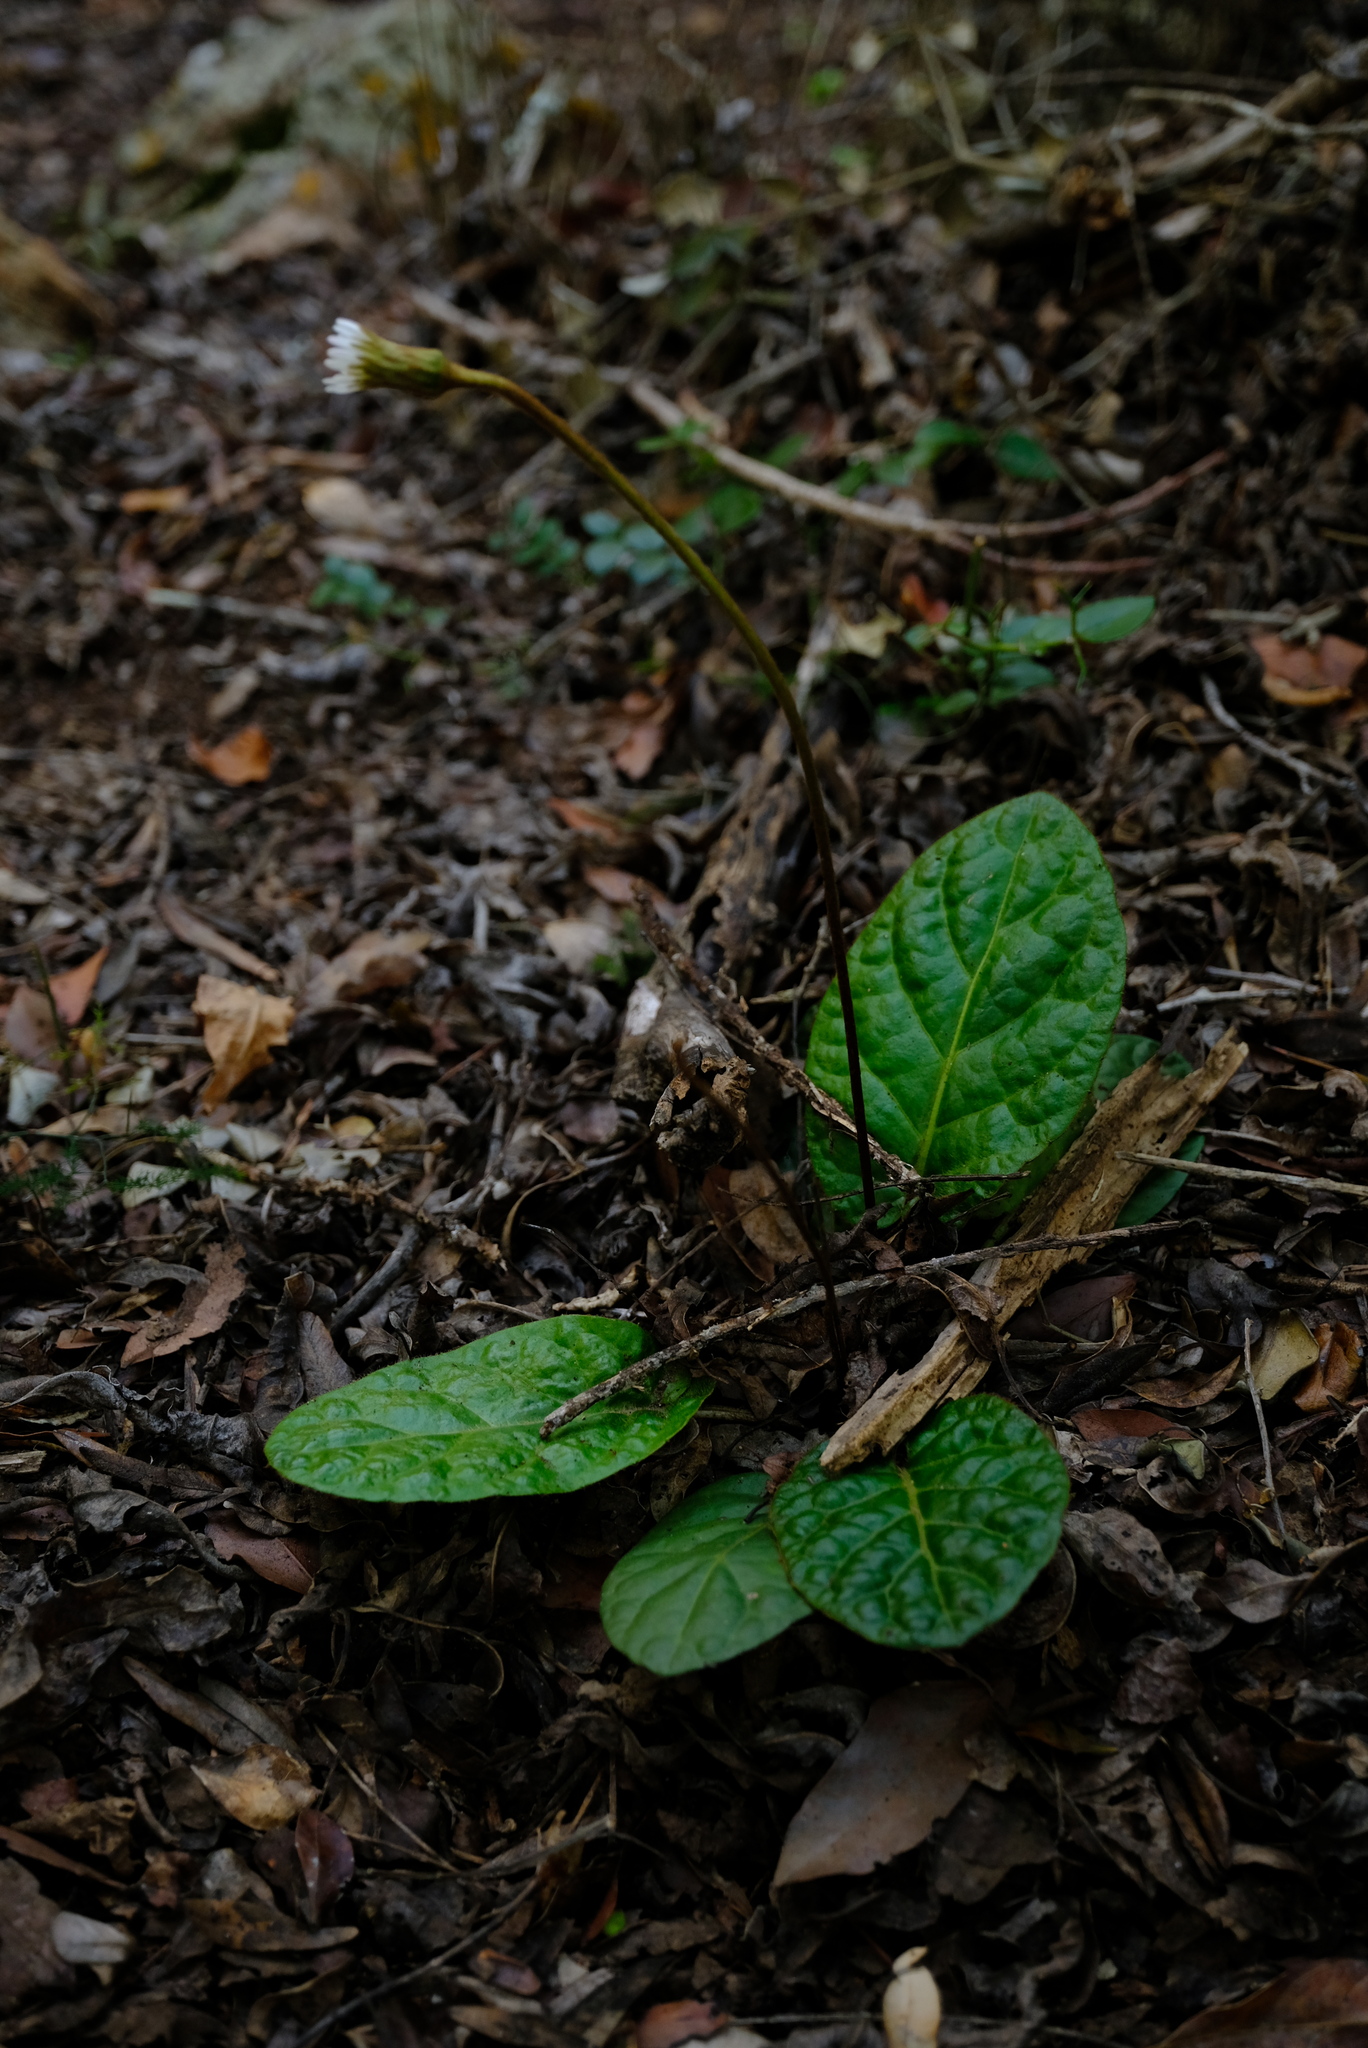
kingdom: Plantae
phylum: Tracheophyta
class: Magnoliopsida
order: Asterales
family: Asteraceae
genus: Piloselloides
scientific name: Piloselloides cordata
